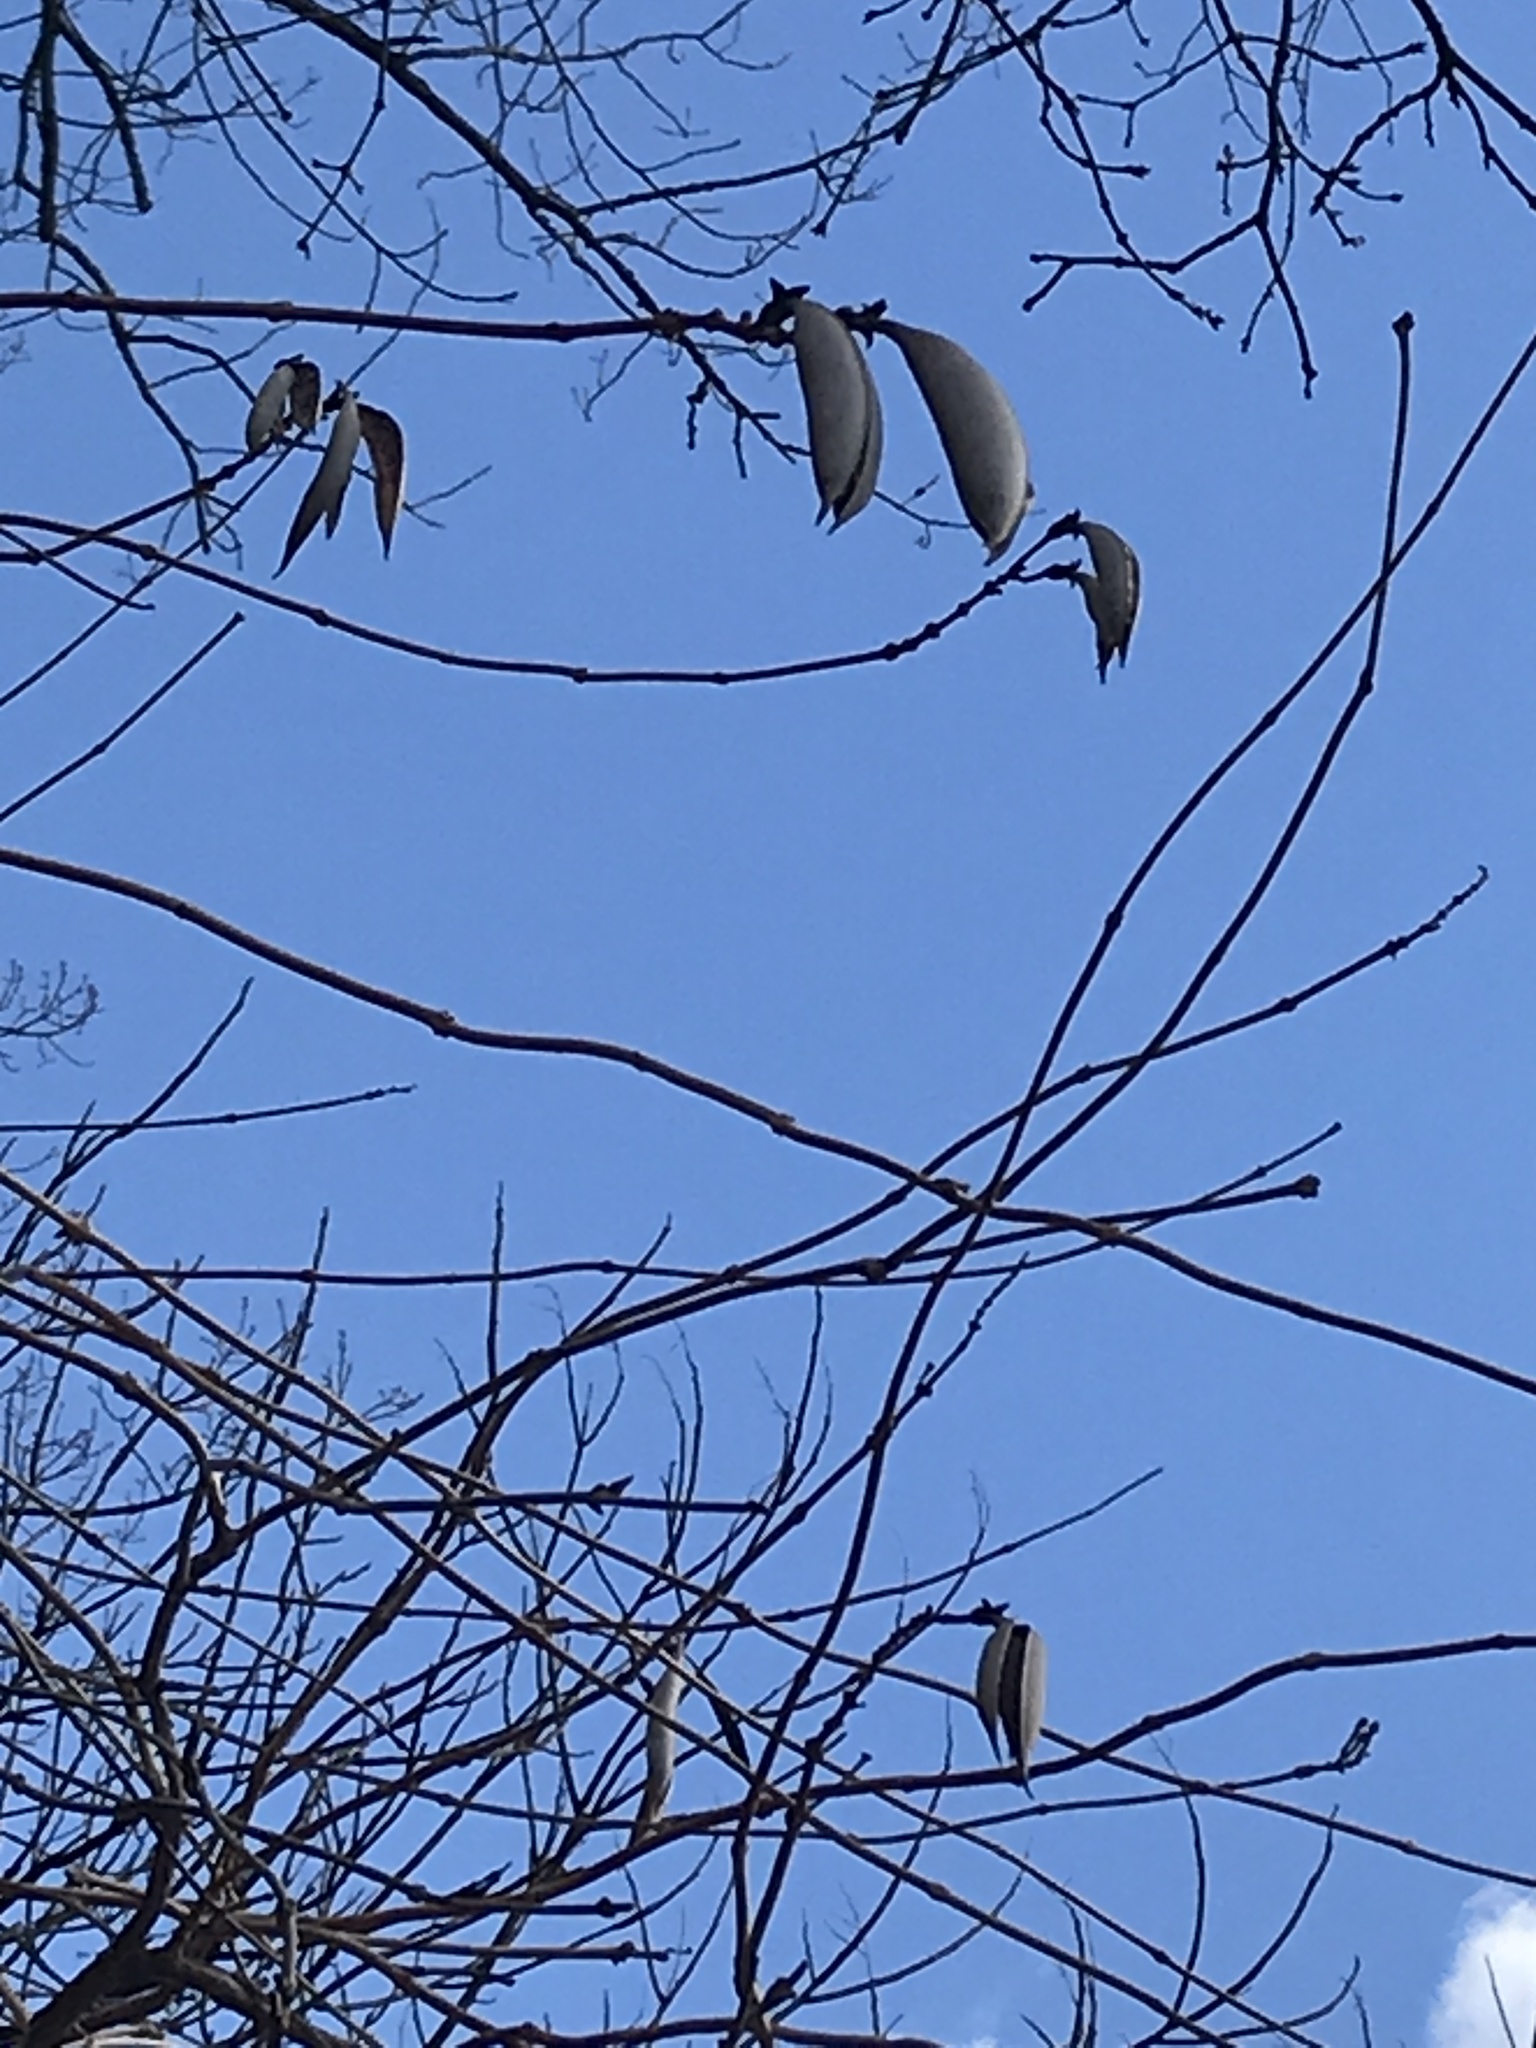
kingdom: Plantae
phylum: Tracheophyta
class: Magnoliopsida
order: Lamiales
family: Bignoniaceae
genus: Campsis
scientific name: Campsis radicans
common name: Trumpet-creeper
